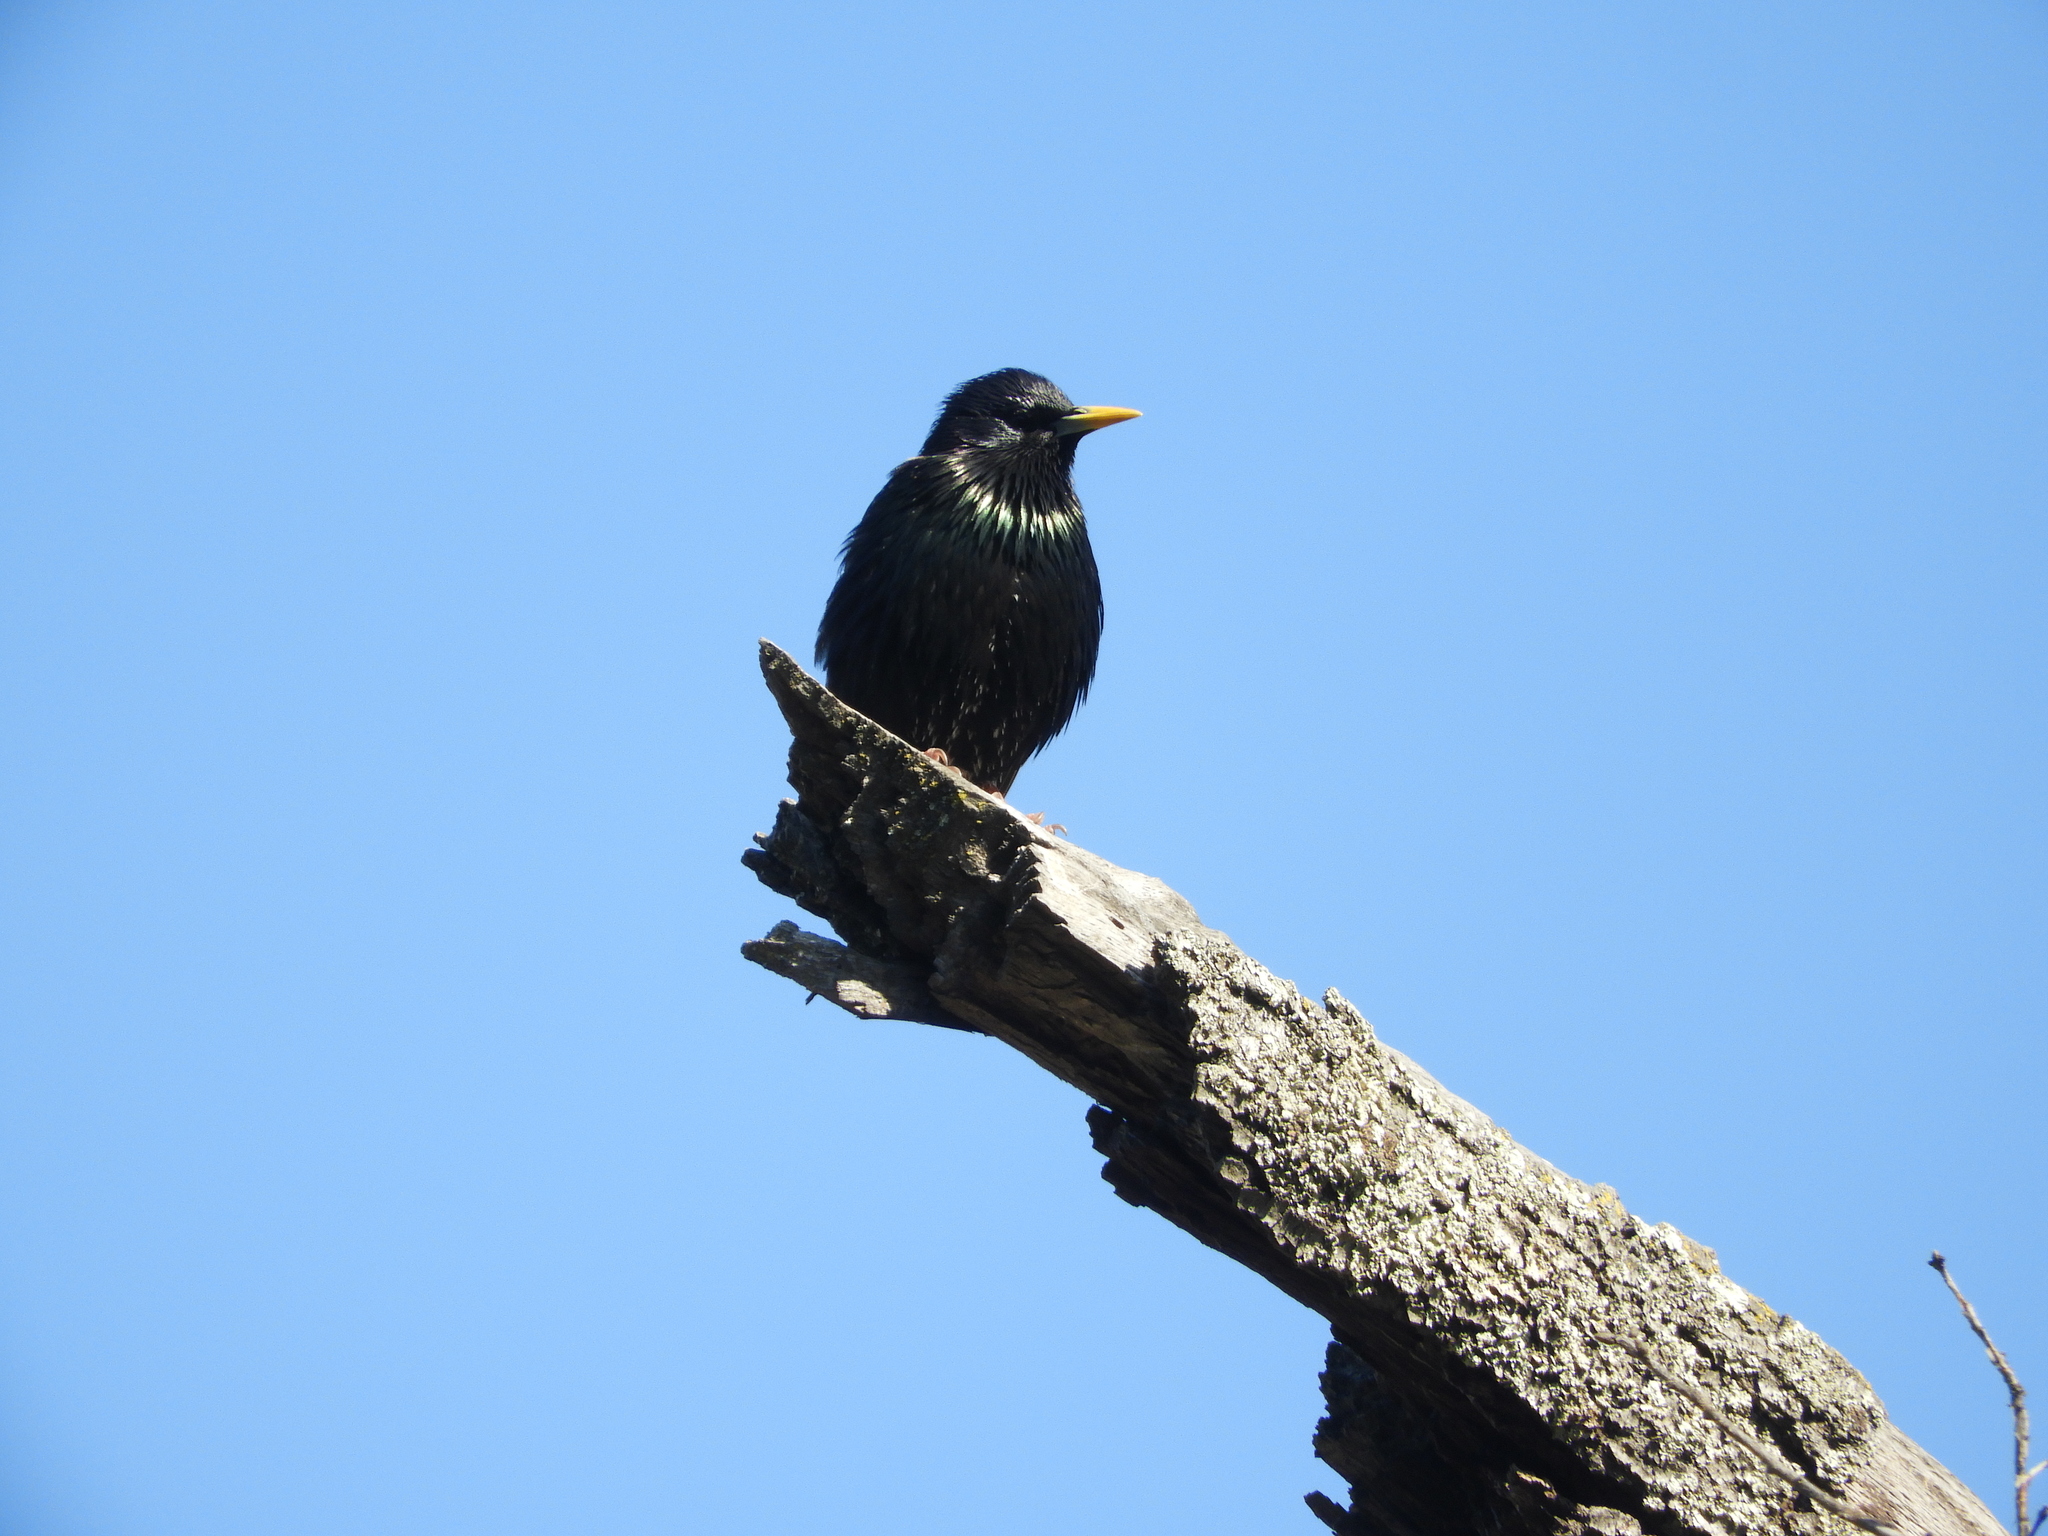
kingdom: Animalia
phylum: Chordata
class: Aves
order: Passeriformes
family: Sturnidae
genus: Sturnus
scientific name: Sturnus vulgaris
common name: Common starling
